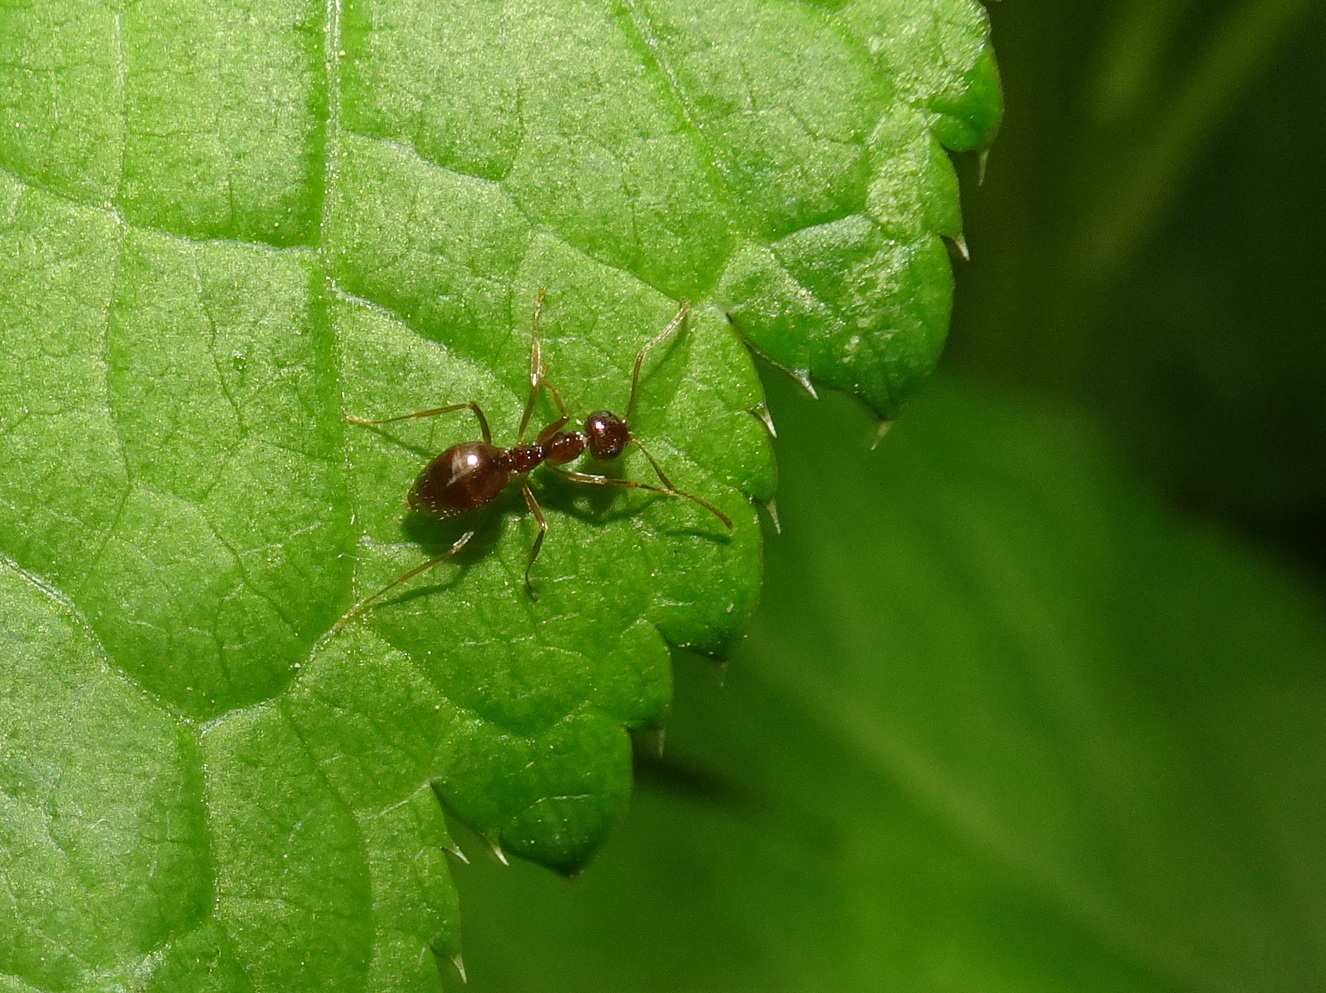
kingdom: Animalia
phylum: Arthropoda
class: Insecta
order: Hymenoptera
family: Formicidae
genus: Prenolepis
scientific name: Prenolepis imparis
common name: Small honey ant
